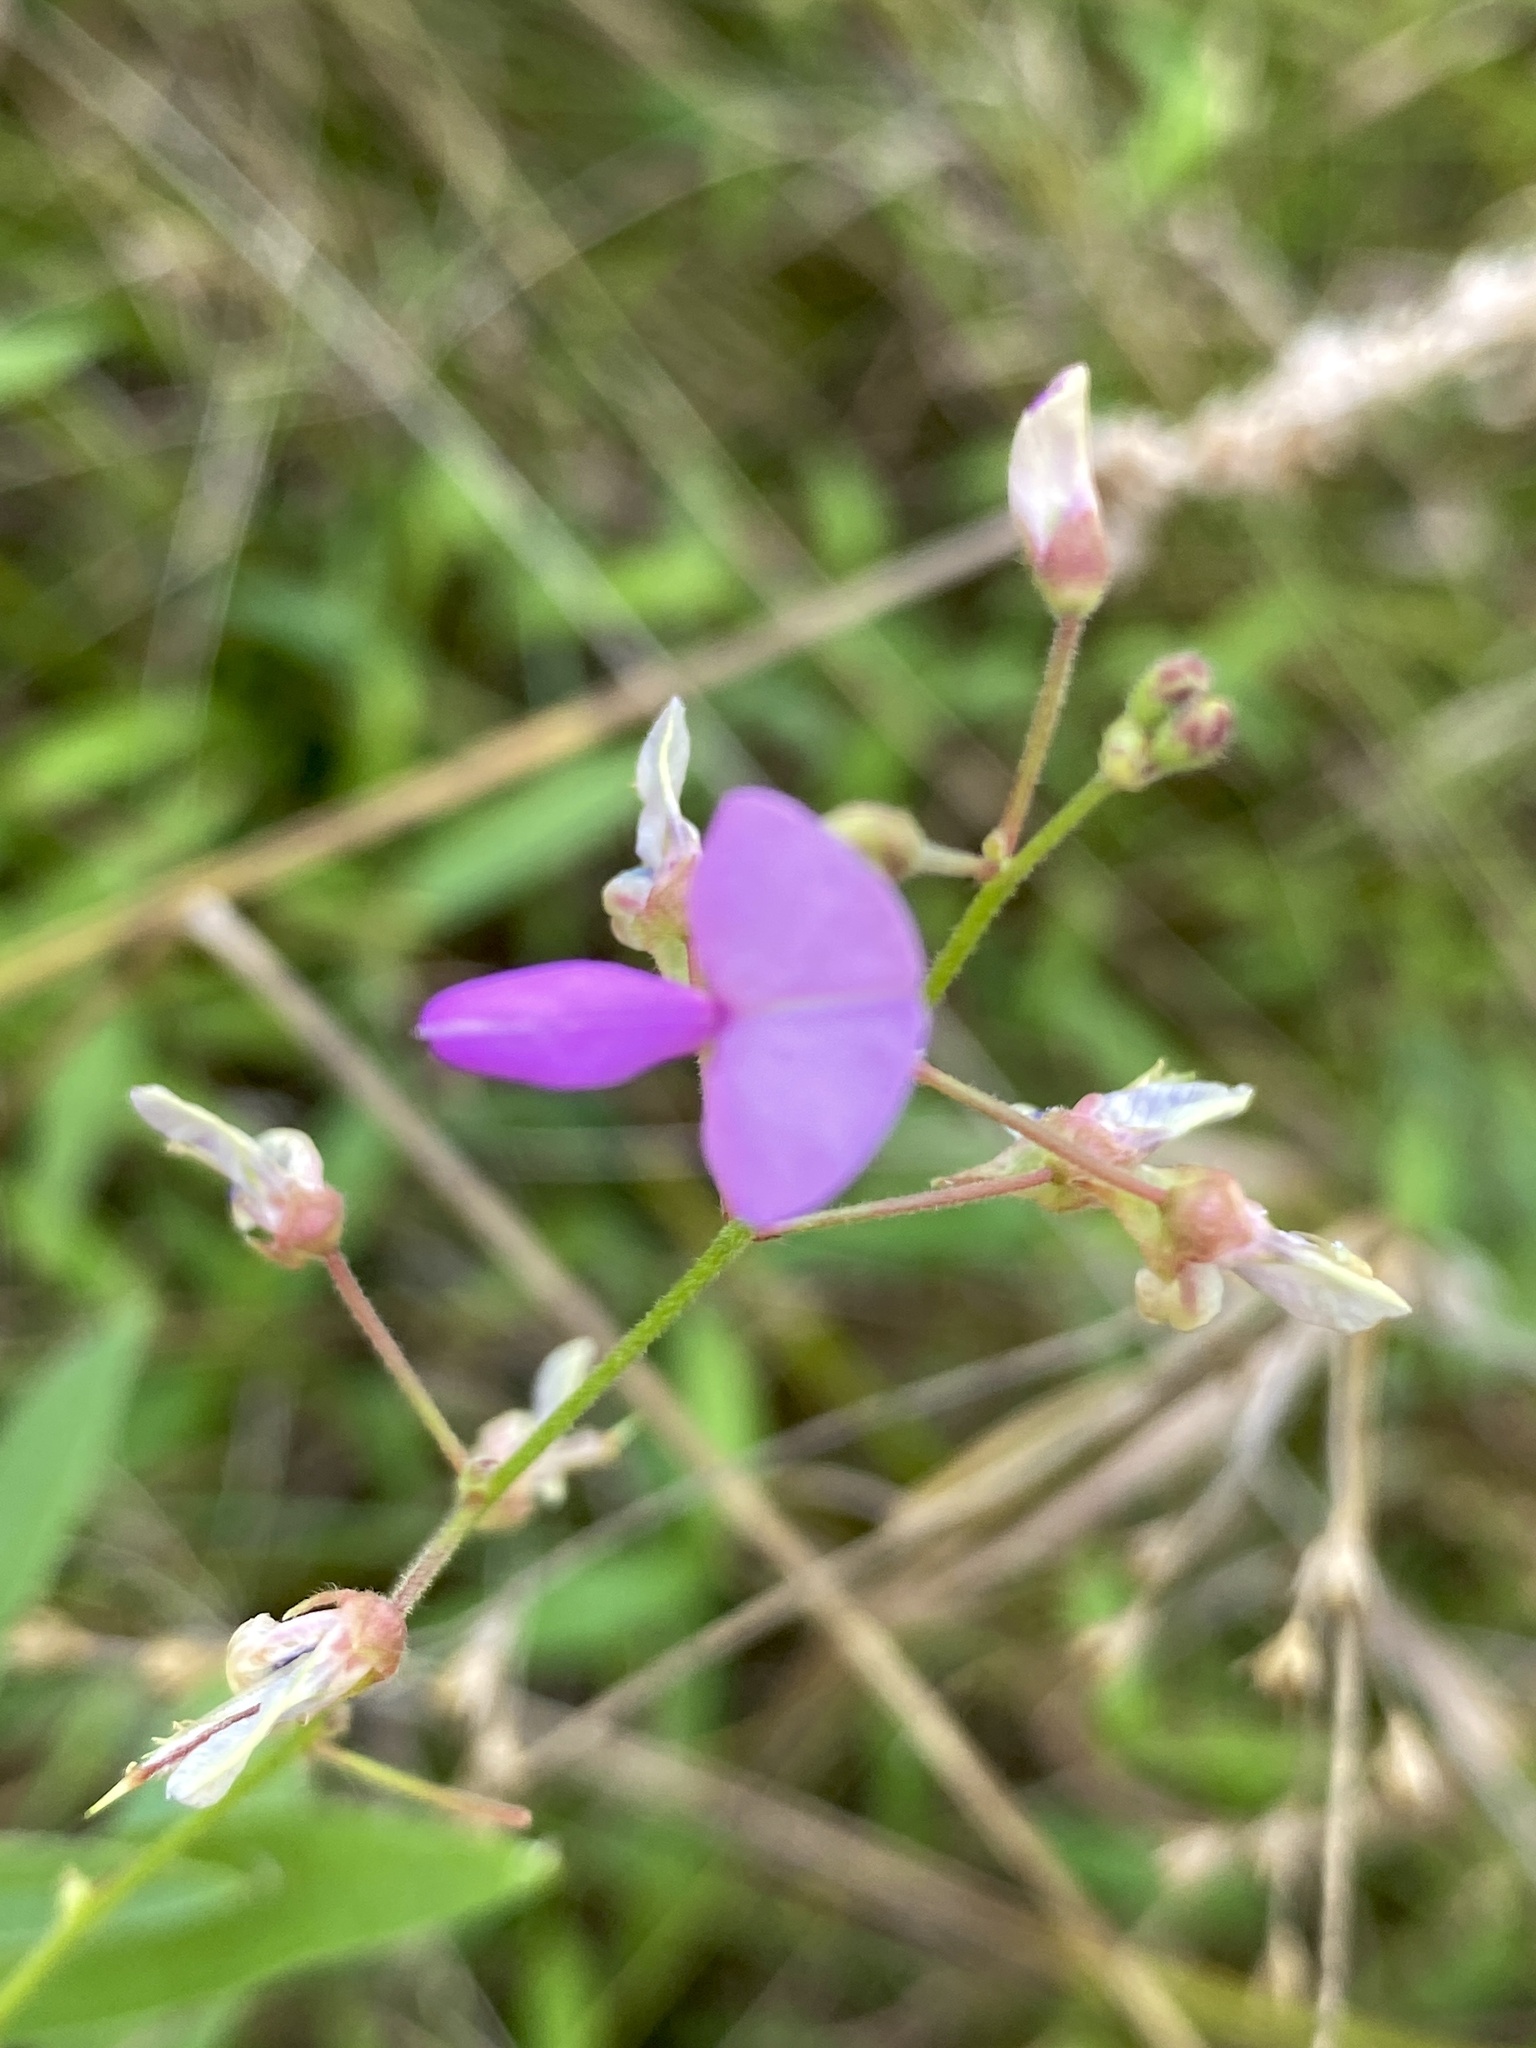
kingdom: Plantae
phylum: Tracheophyta
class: Magnoliopsida
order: Fabales
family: Fabaceae
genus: Desmodium
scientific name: Desmodium paniculatum
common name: Panicled tick-clover
